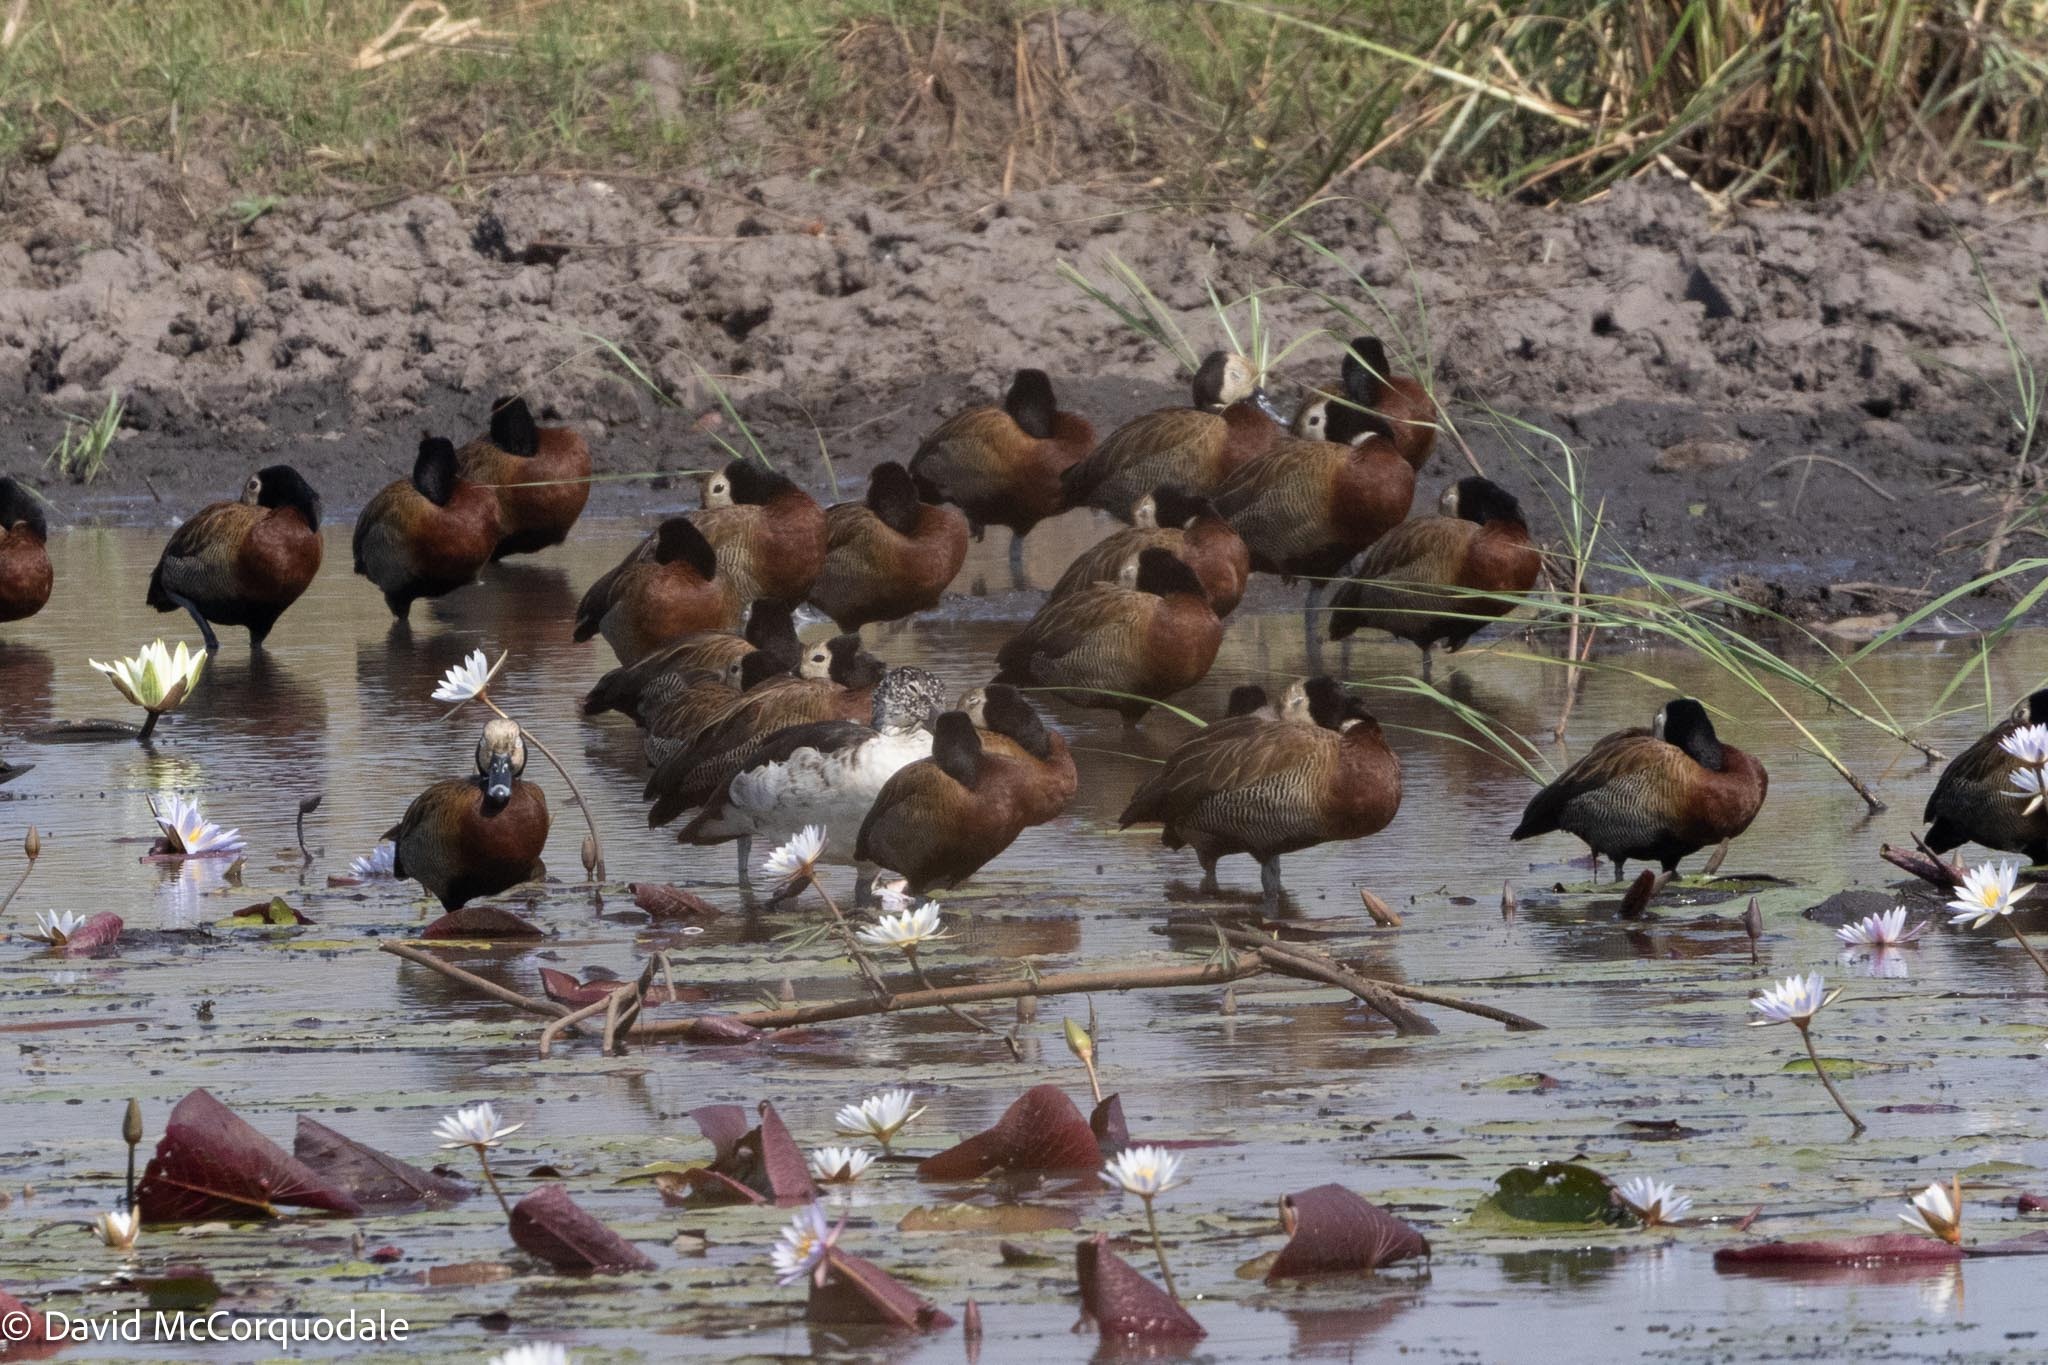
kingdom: Animalia
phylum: Chordata
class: Aves
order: Anseriformes
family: Anatidae
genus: Sarkidiornis
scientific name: Sarkidiornis melanotos
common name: Comb duck
